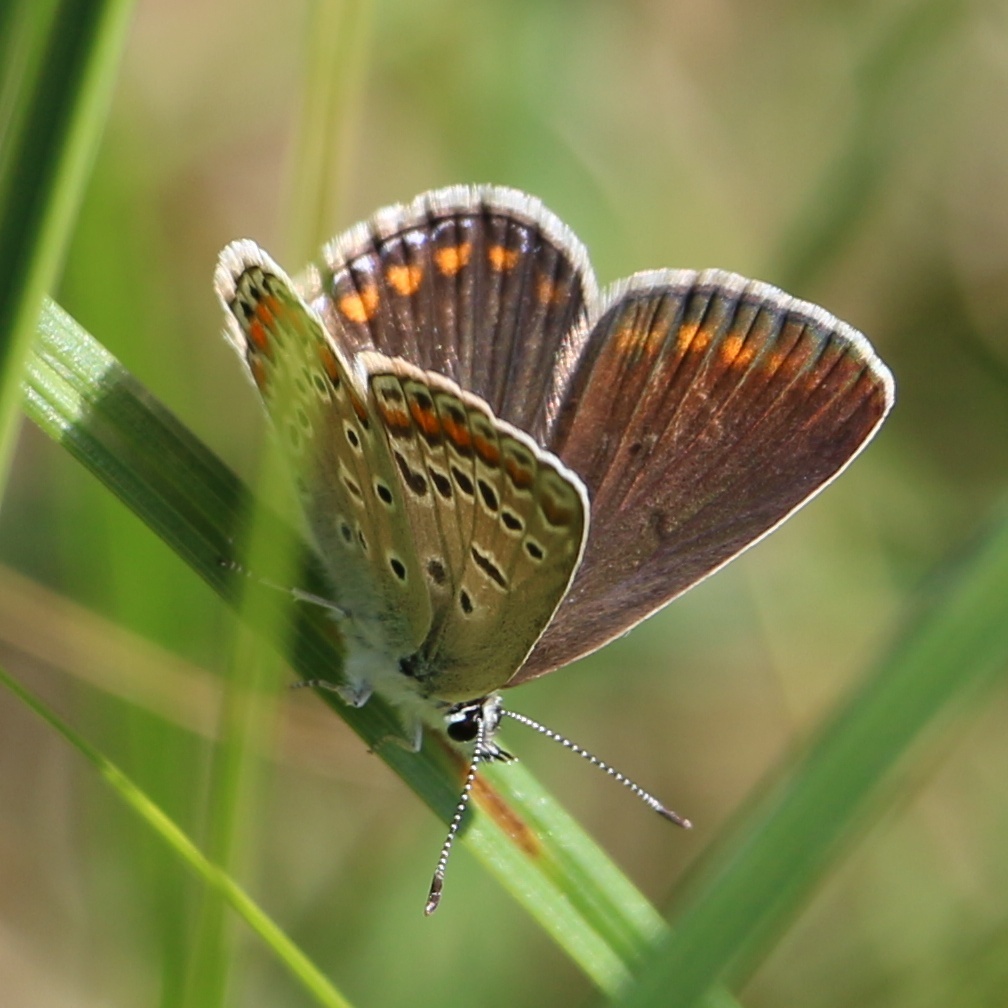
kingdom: Animalia
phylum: Arthropoda
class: Insecta
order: Lepidoptera
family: Lycaenidae
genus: Polyommatus
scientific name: Polyommatus icarus
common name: Common blue
